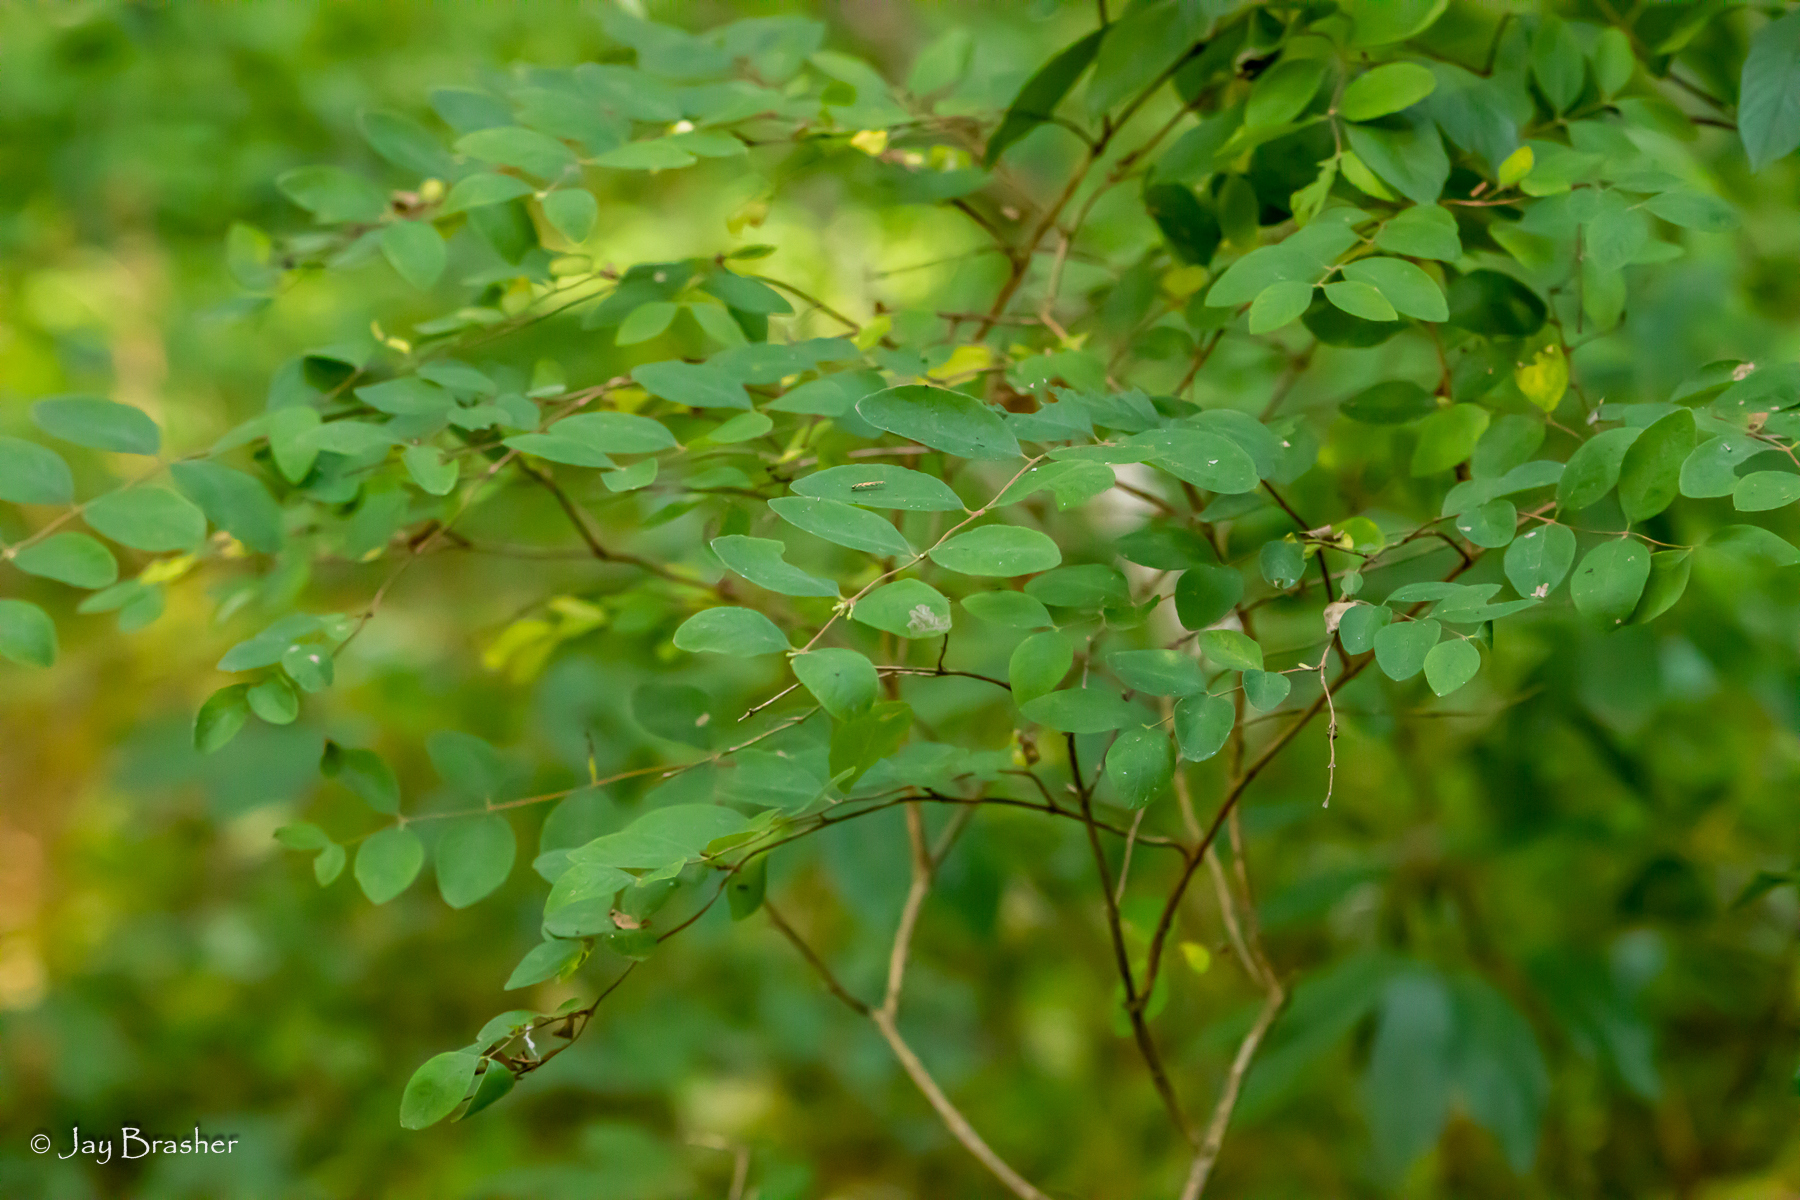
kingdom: Plantae
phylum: Tracheophyta
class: Magnoliopsida
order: Dipsacales
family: Caprifoliaceae
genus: Symphoricarpos
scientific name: Symphoricarpos orbiculatus
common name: Coralberry
